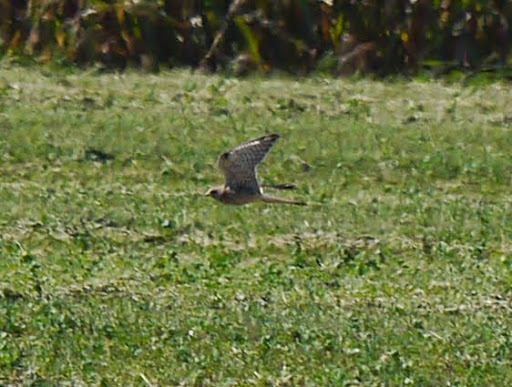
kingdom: Animalia
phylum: Chordata
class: Aves
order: Falconiformes
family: Falconidae
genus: Falco
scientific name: Falco tinnunculus
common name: Common kestrel
